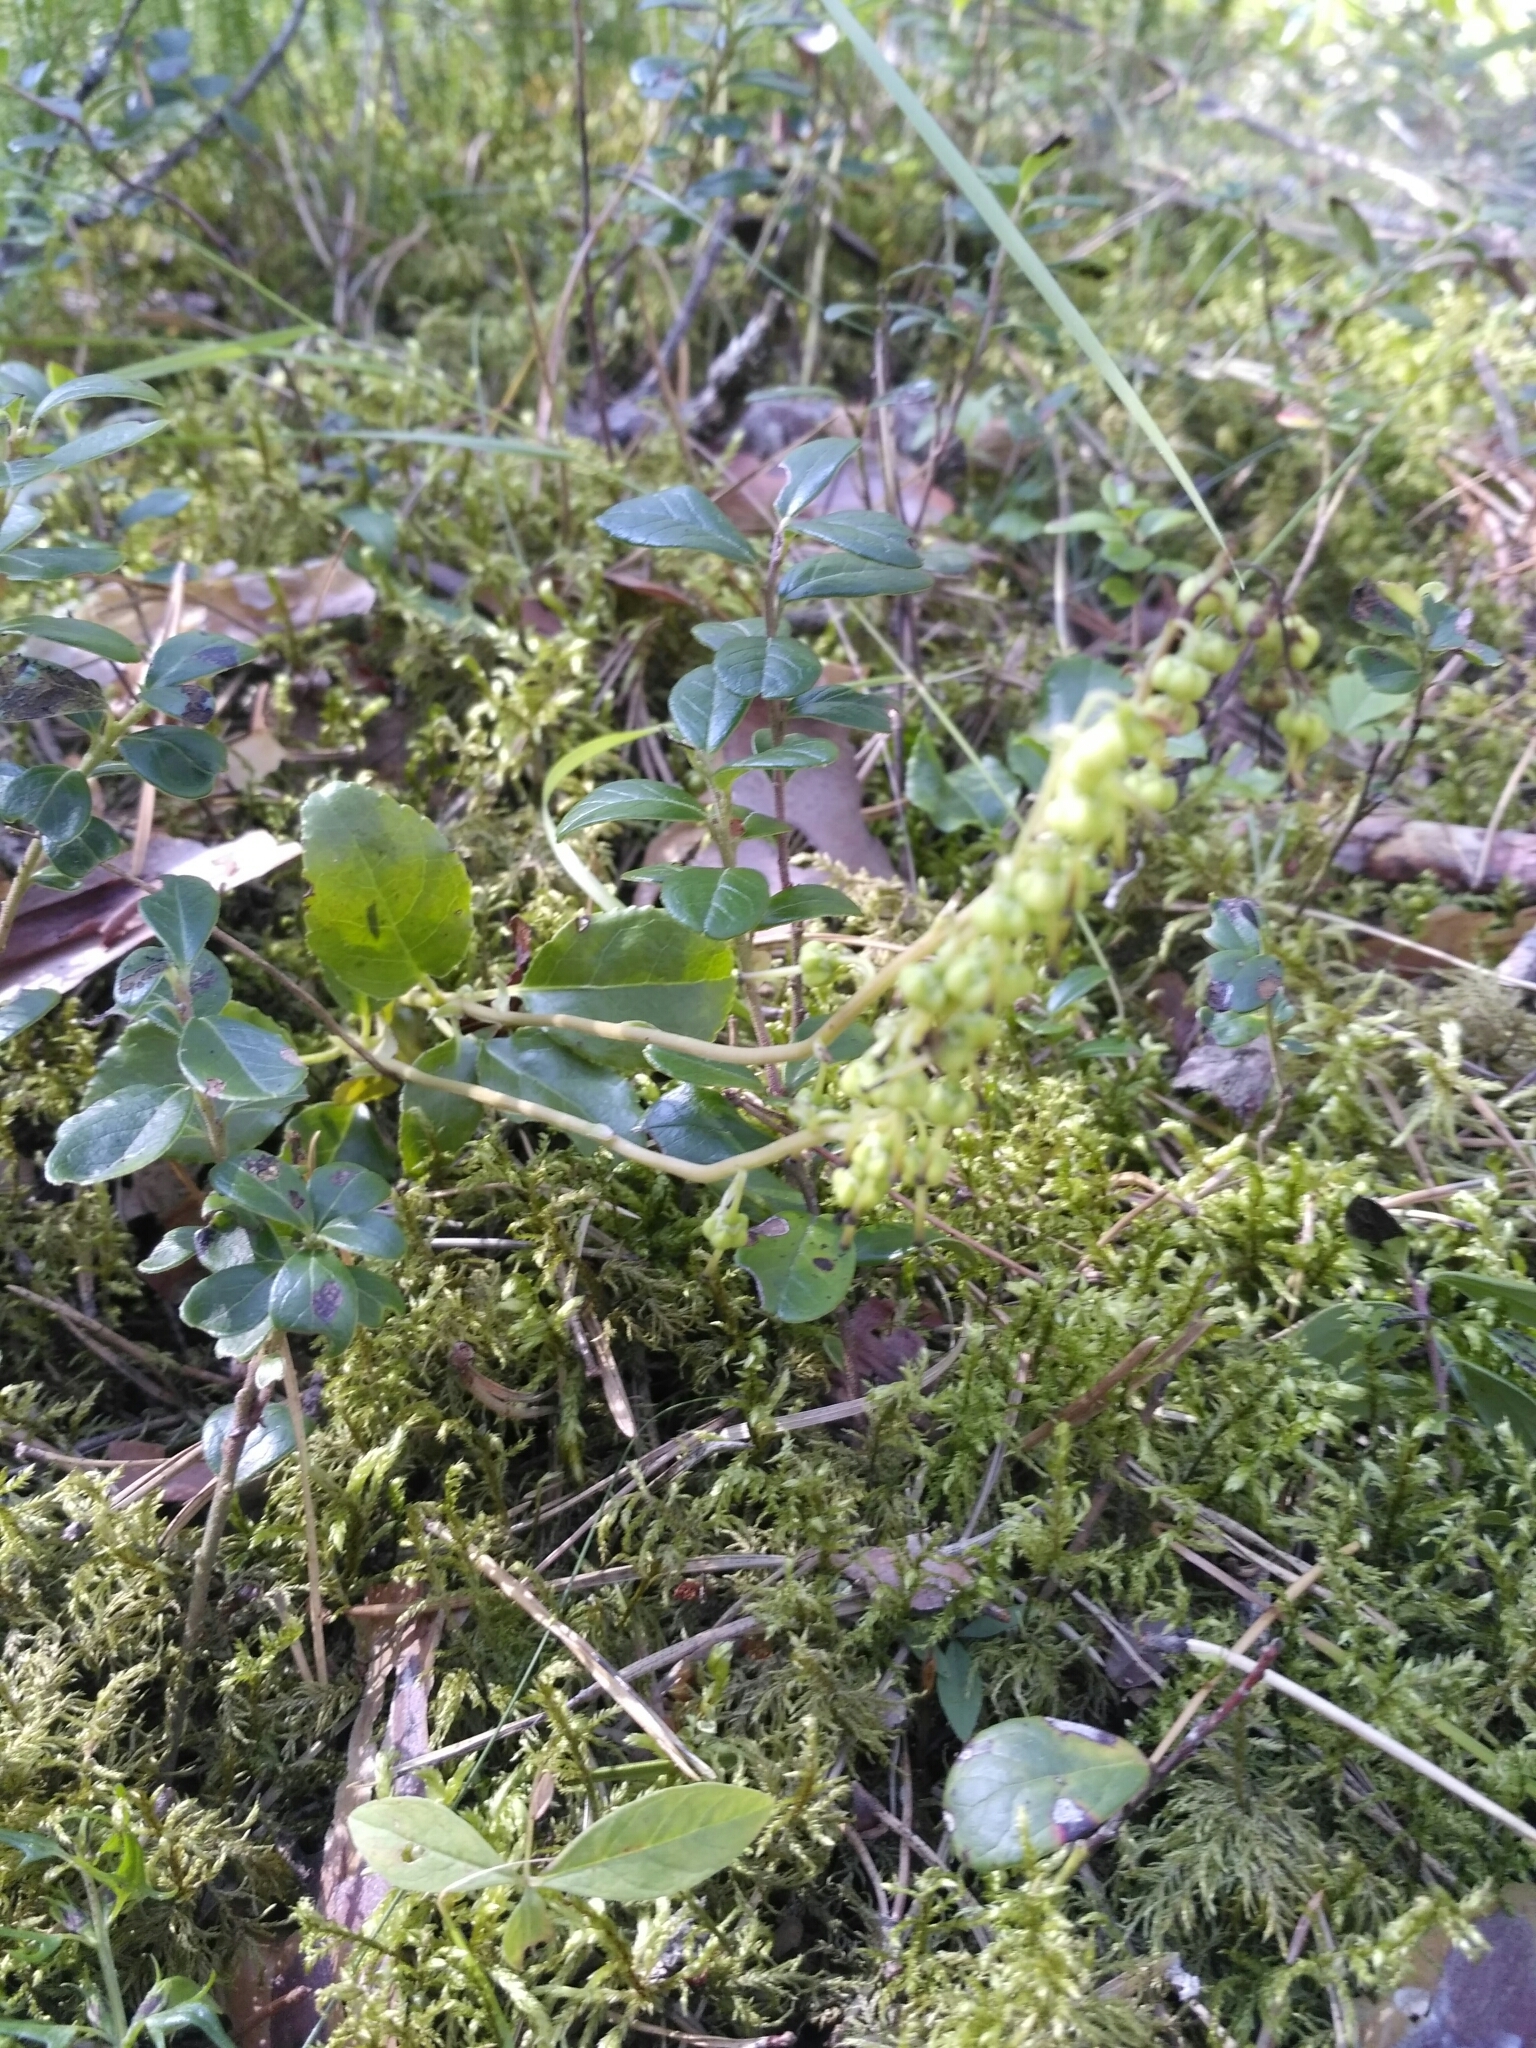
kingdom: Plantae
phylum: Tracheophyta
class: Magnoliopsida
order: Ericales
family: Ericaceae
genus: Orthilia
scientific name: Orthilia secunda
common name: One-sided orthilia
